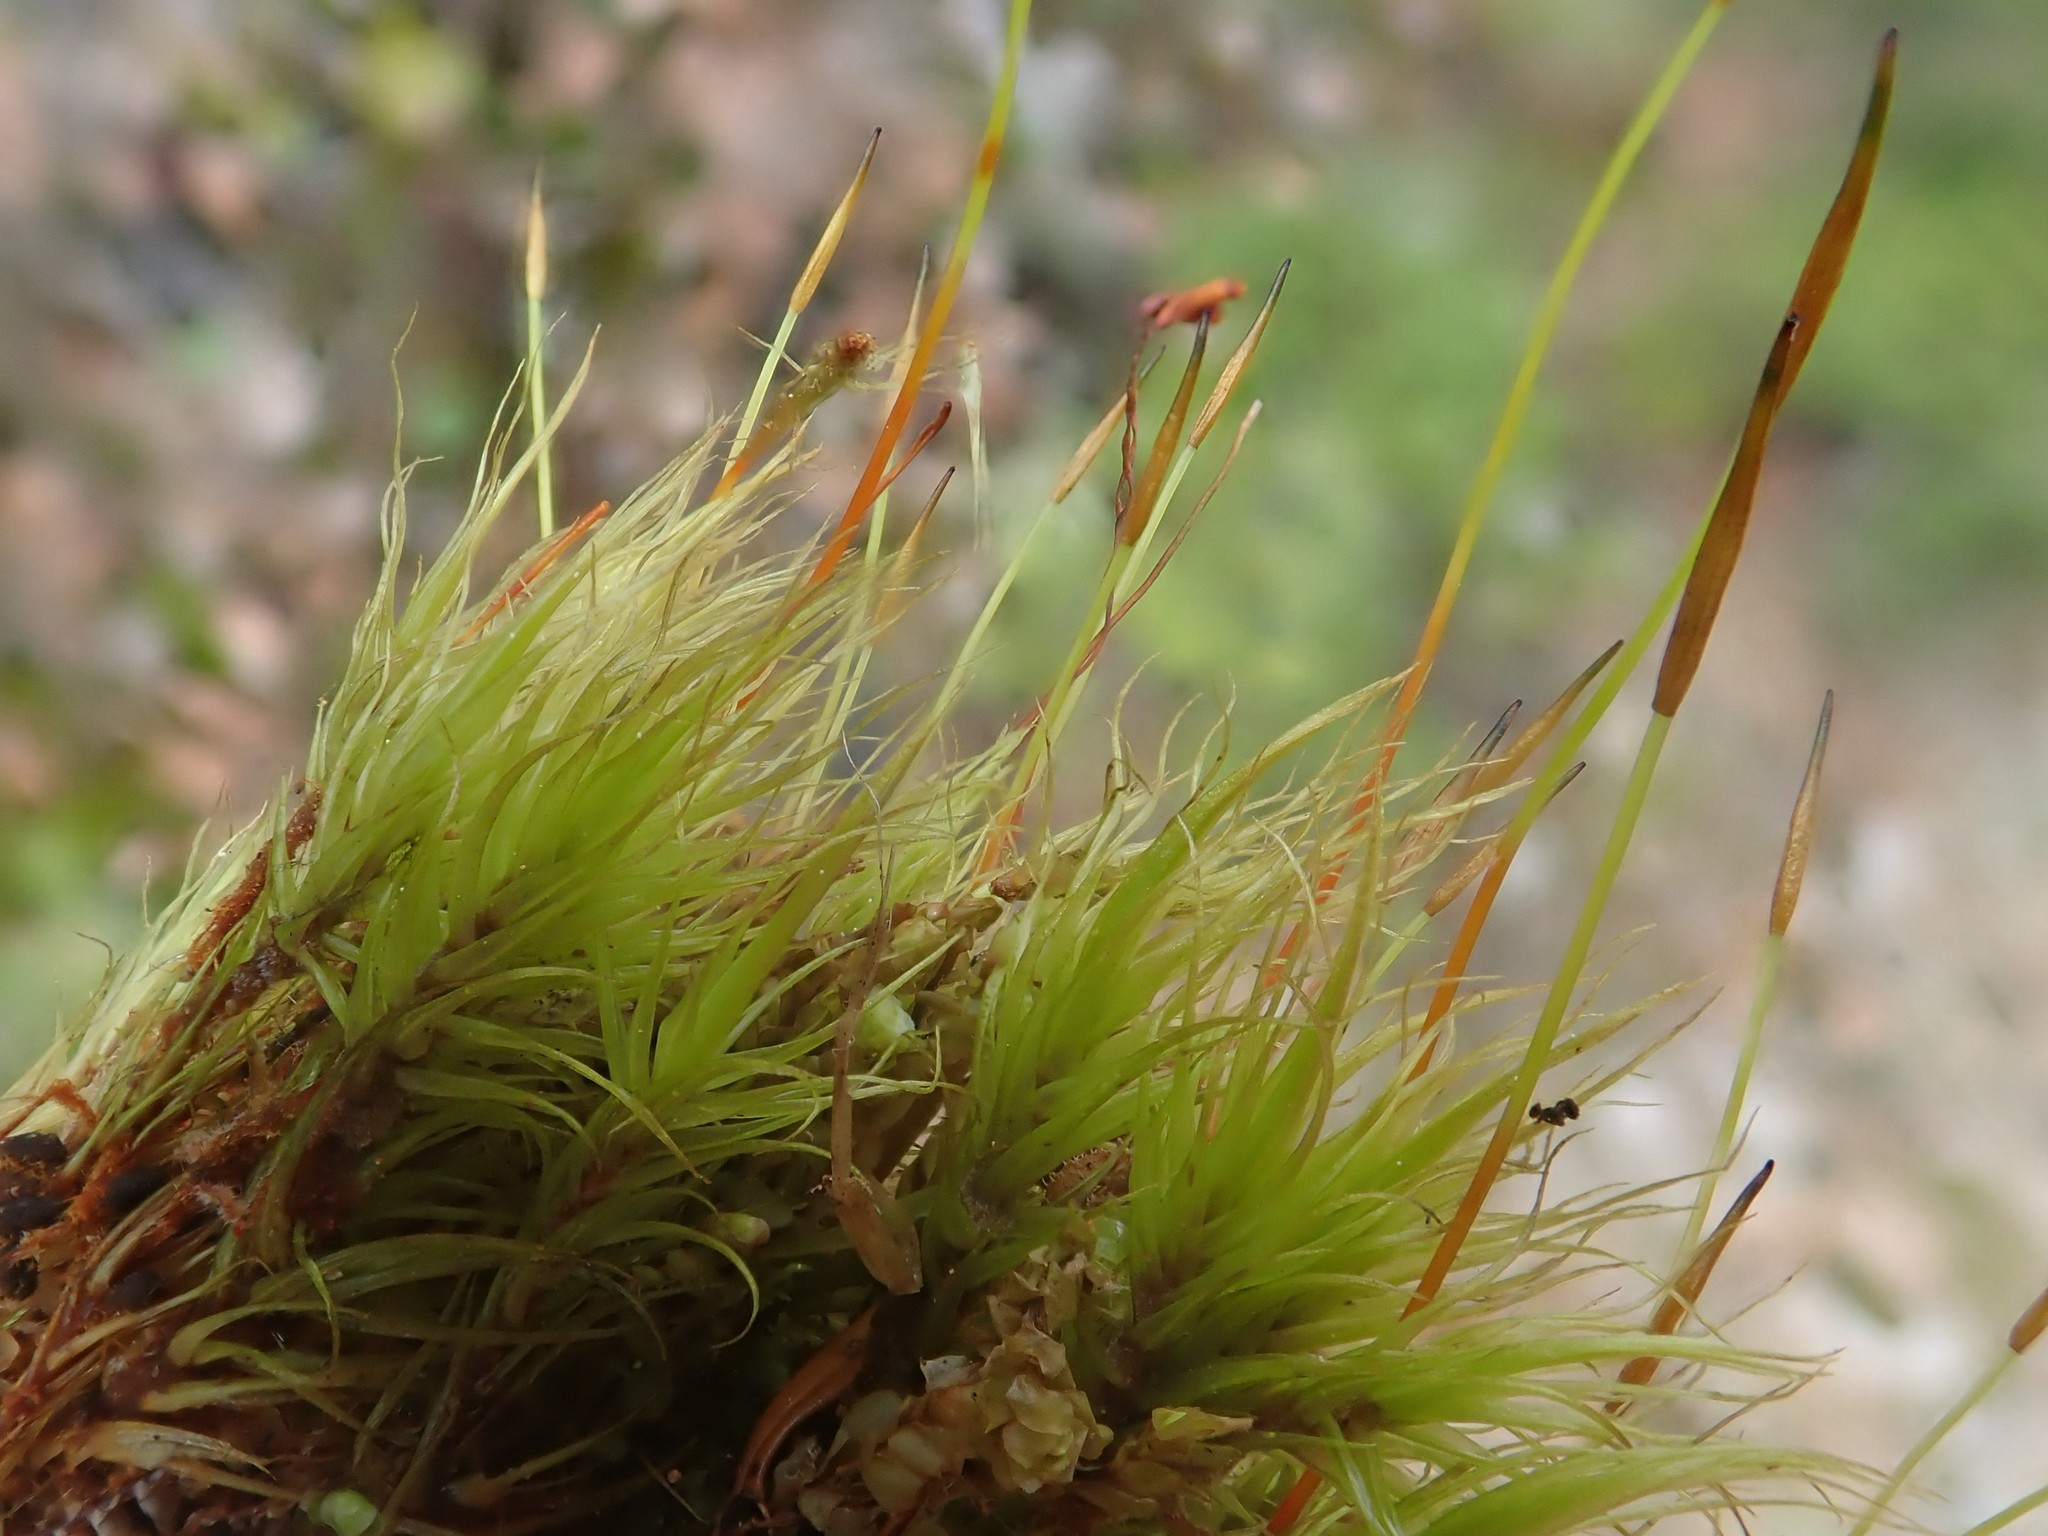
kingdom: Plantae
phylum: Bryophyta
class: Bryopsida
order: Dicranales
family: Dicranaceae
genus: Dicranum
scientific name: Dicranum scoparium
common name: Broom fork-moss
